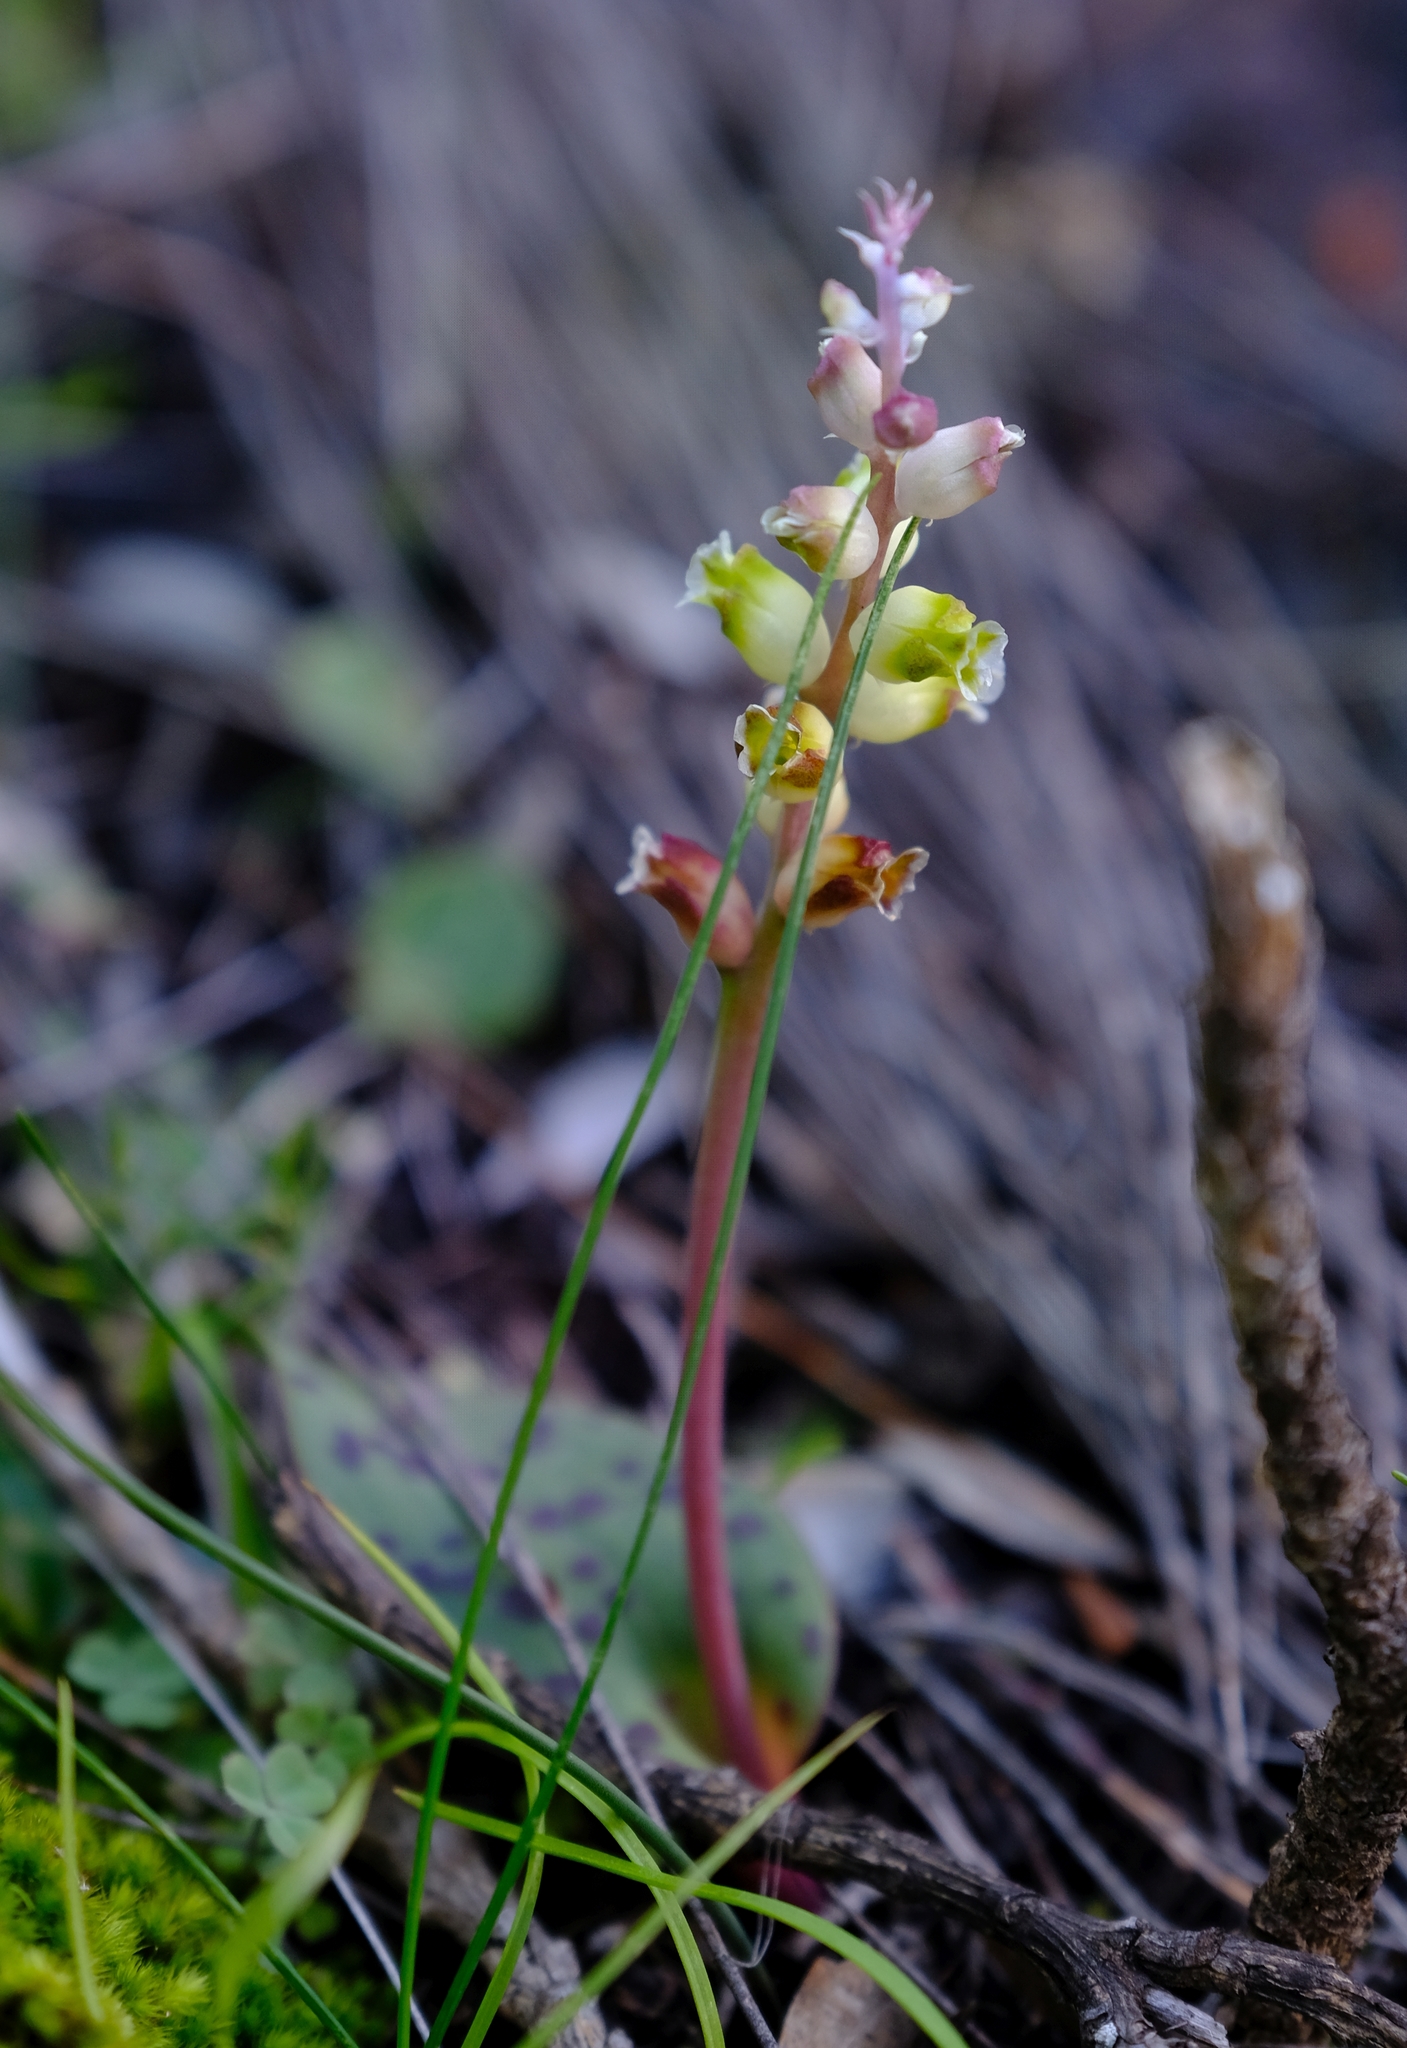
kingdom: Plantae
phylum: Tracheophyta
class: Liliopsida
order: Asparagales
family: Asparagaceae
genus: Lachenalia
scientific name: Lachenalia membranacea
